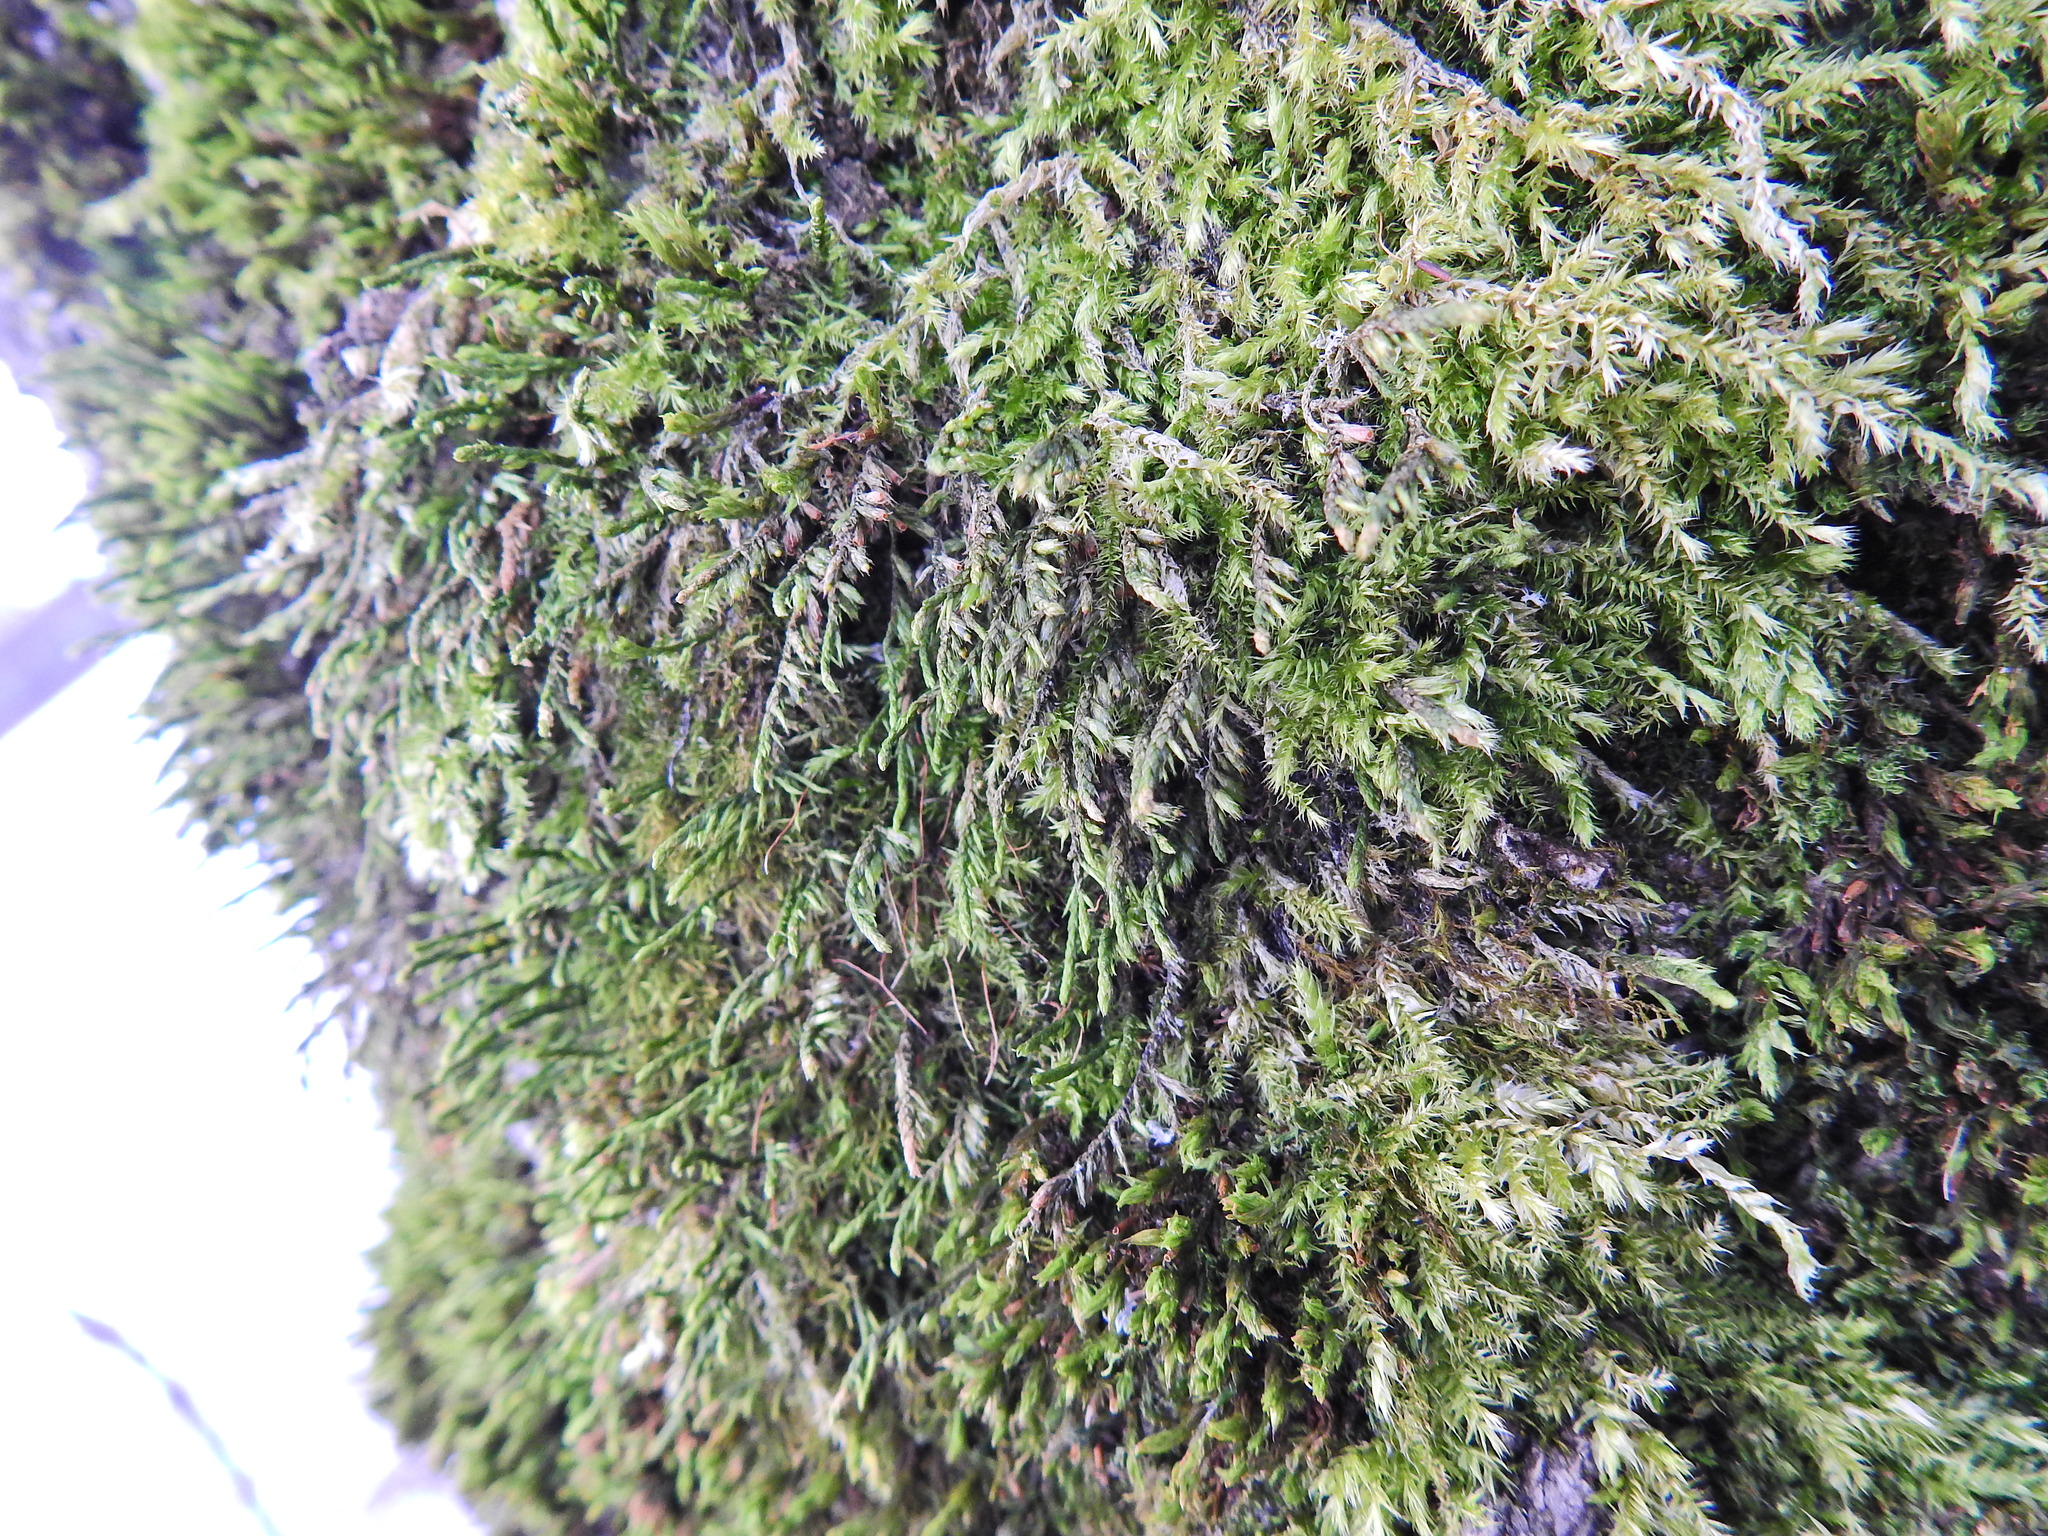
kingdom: Plantae
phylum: Bryophyta
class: Bryopsida
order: Hypnales
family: Cryphaeaceae
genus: Cryphaea
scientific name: Cryphaea heteromalla
